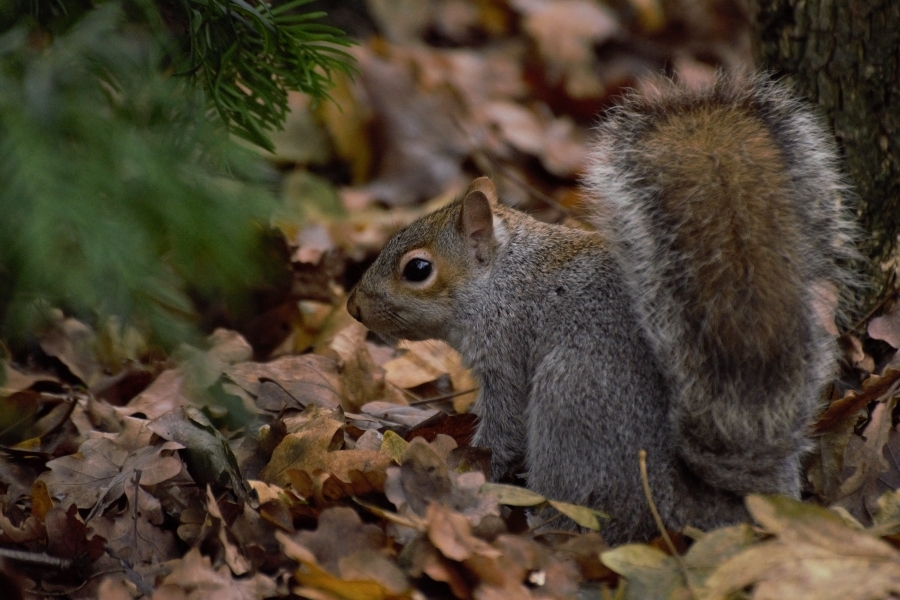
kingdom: Animalia
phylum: Chordata
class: Mammalia
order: Rodentia
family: Sciuridae
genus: Sciurus
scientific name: Sciurus carolinensis
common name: Eastern gray squirrel
